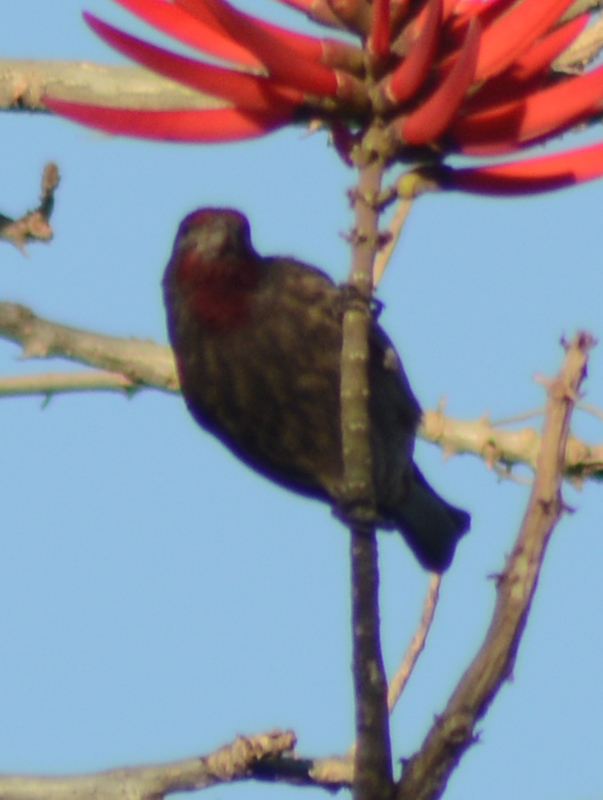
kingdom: Animalia
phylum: Chordata
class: Aves
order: Passeriformes
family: Fringillidae
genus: Haemorhous
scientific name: Haemorhous mexicanus
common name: House finch
